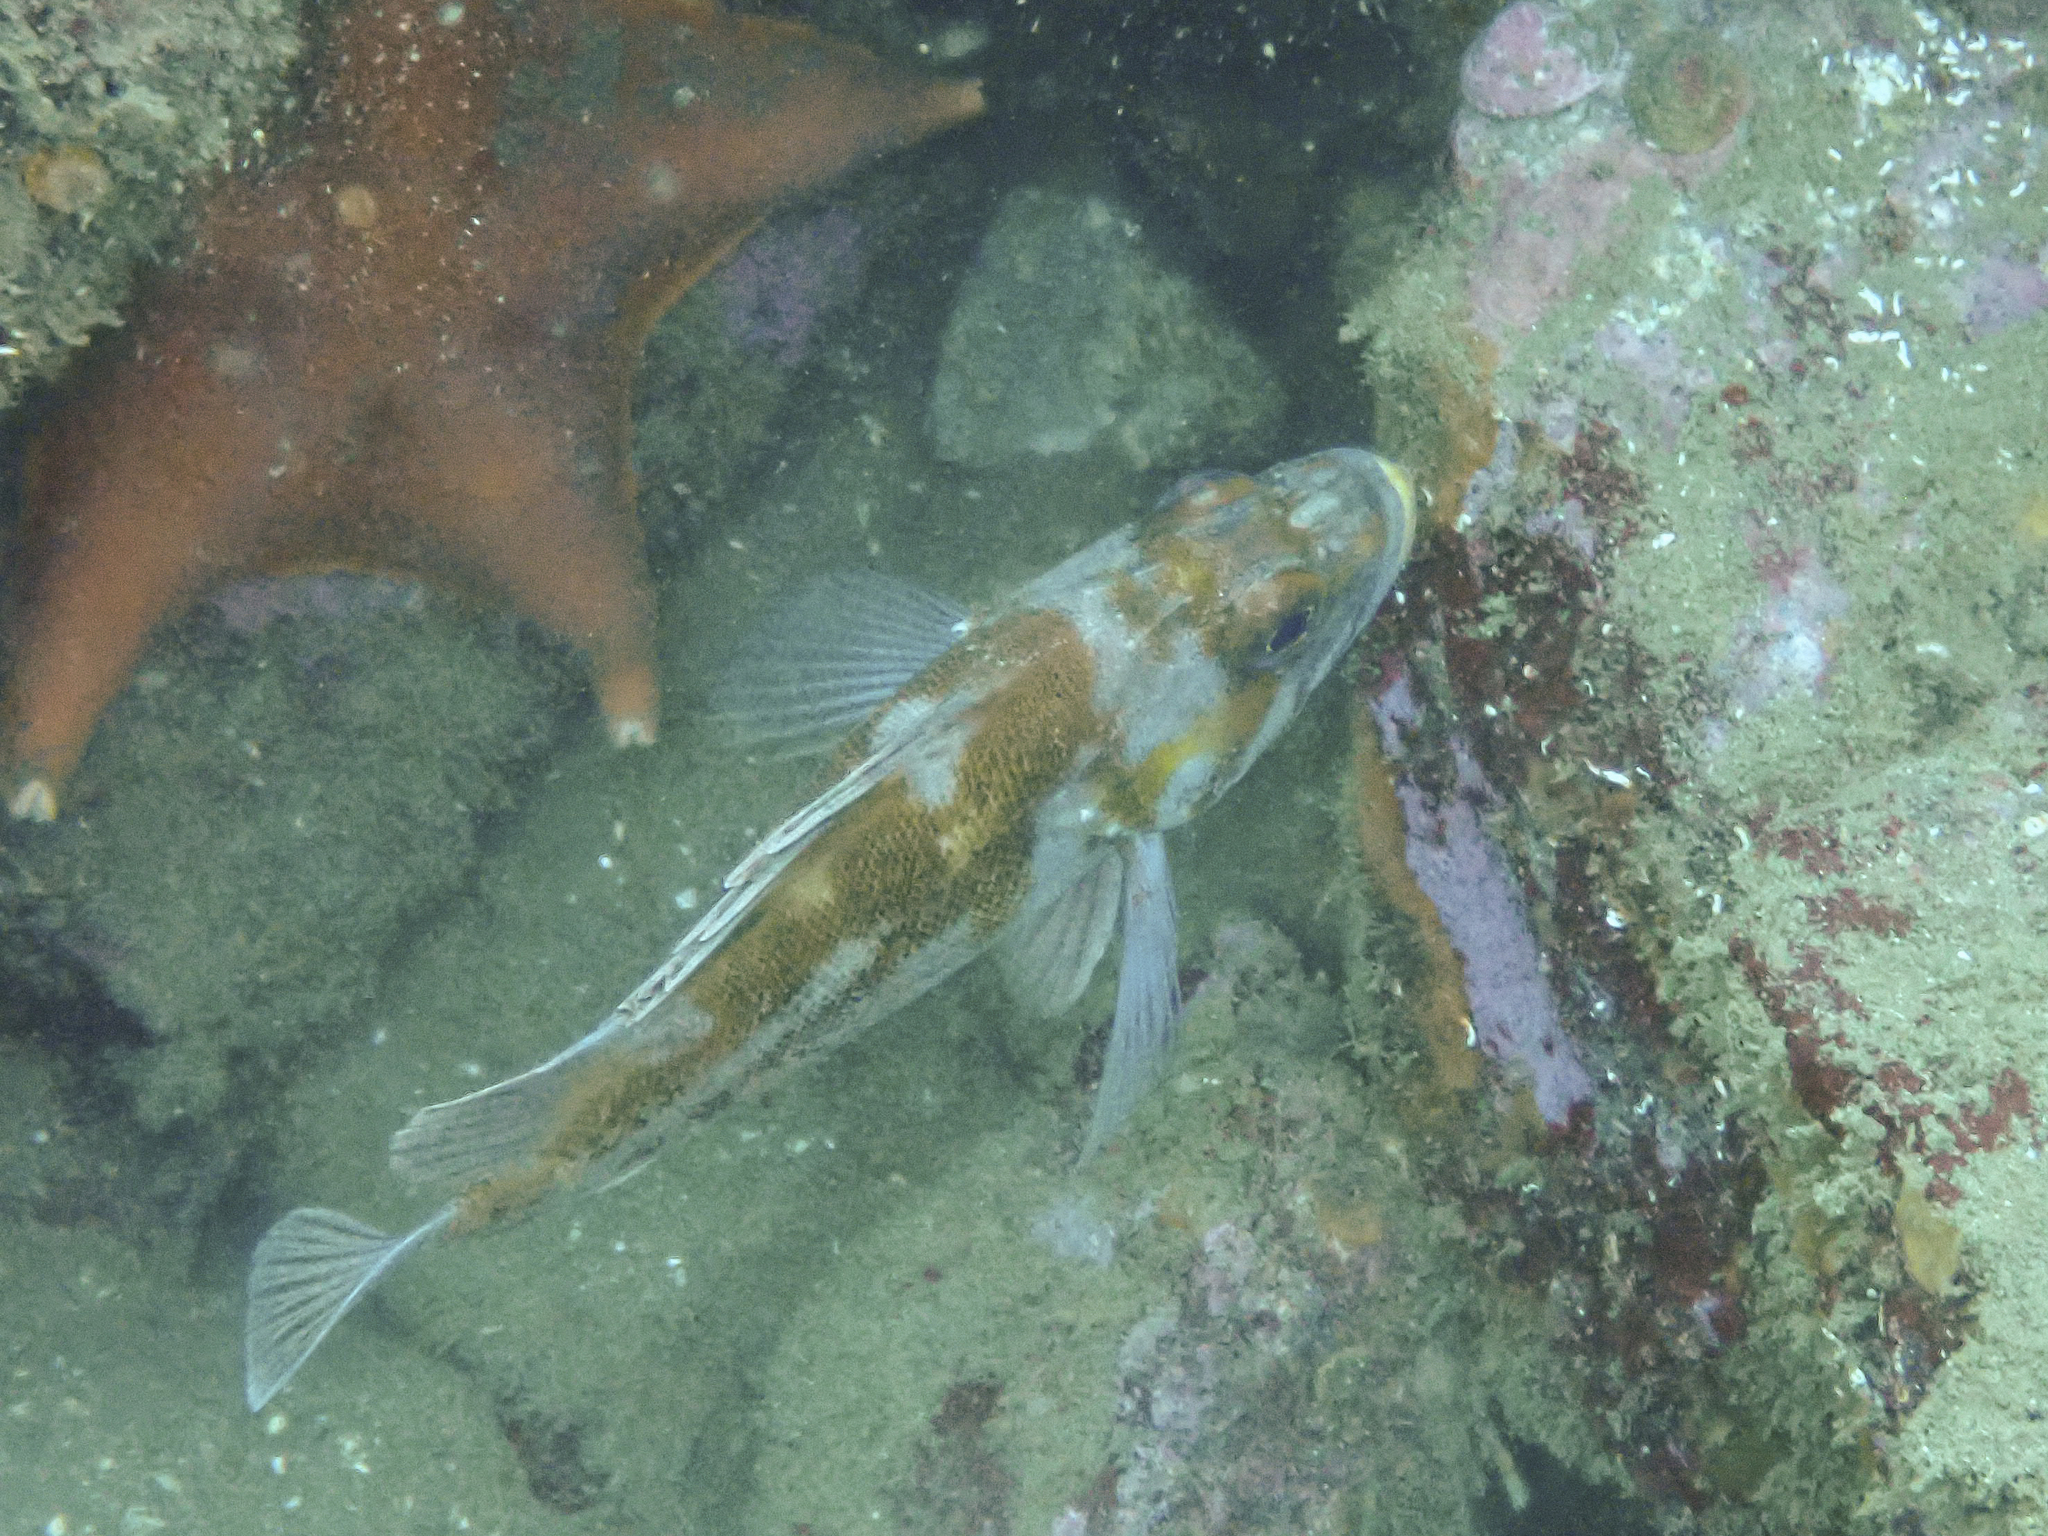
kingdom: Animalia
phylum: Chordata
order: Scorpaeniformes
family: Sebastidae
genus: Sebastes
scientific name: Sebastes caurinus
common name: Copper rockfish
